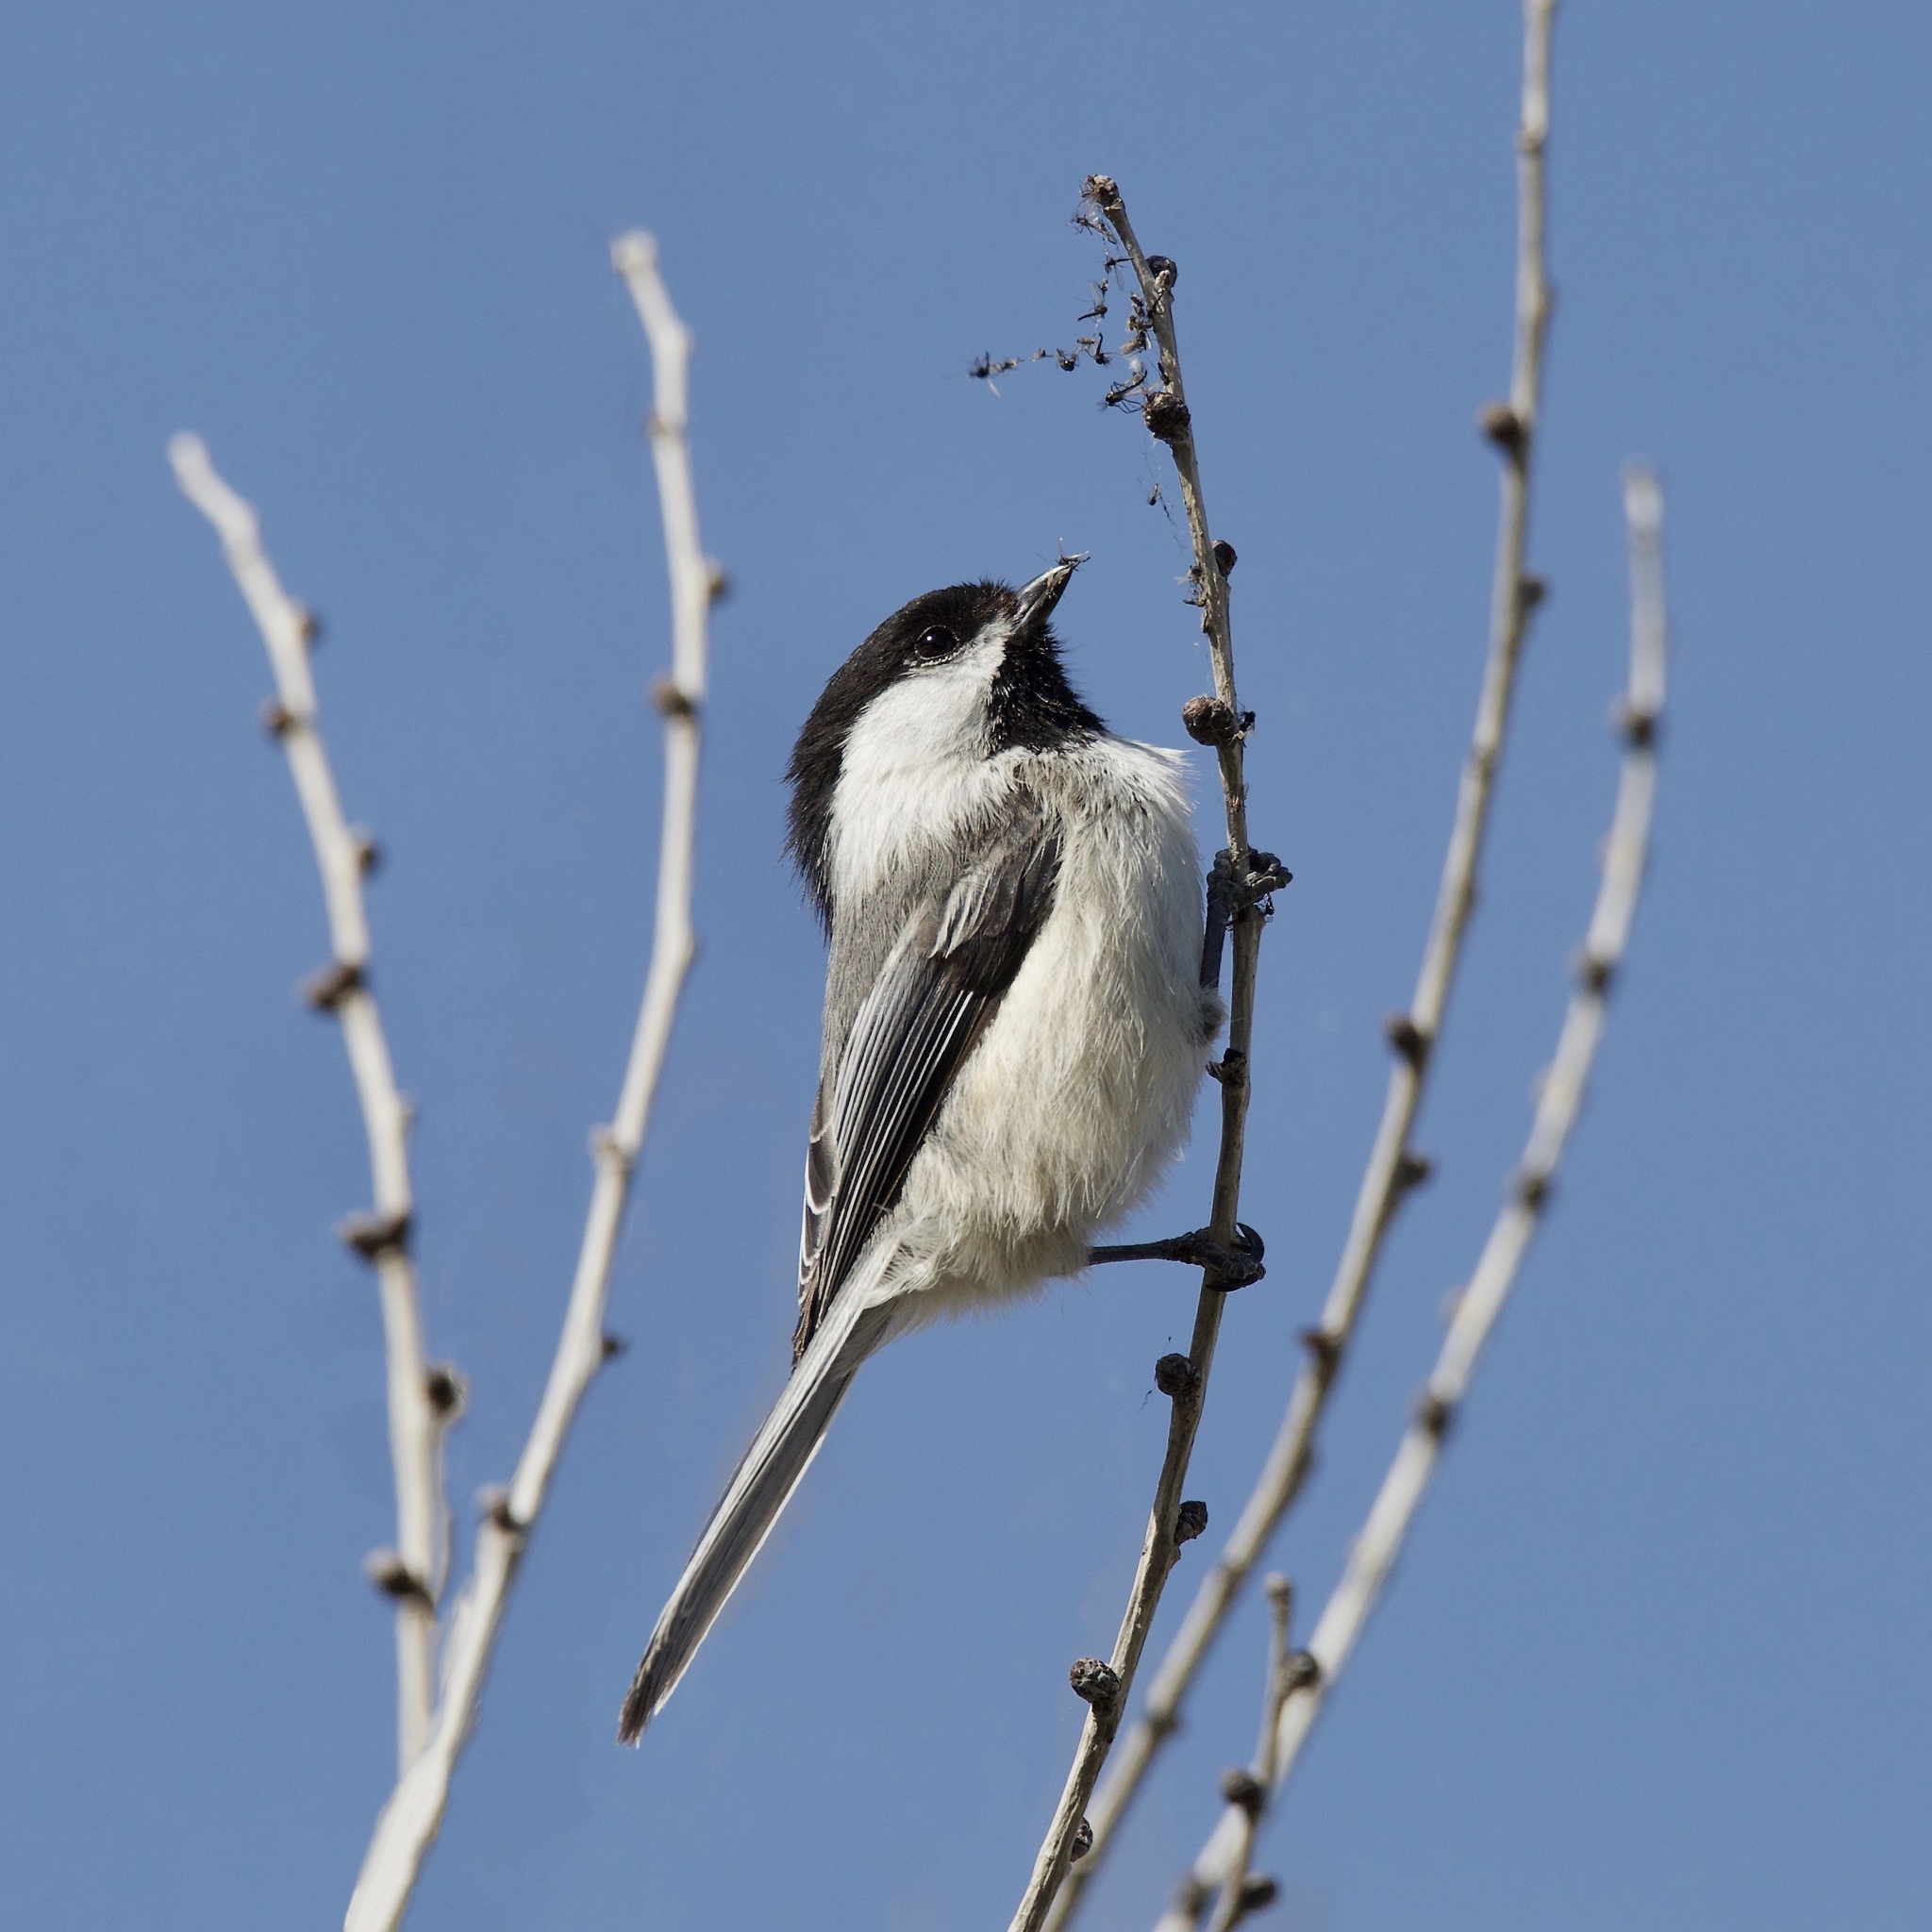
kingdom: Animalia
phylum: Chordata
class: Aves
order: Passeriformes
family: Paridae
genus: Poecile
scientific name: Poecile atricapillus
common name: Black-capped chickadee
